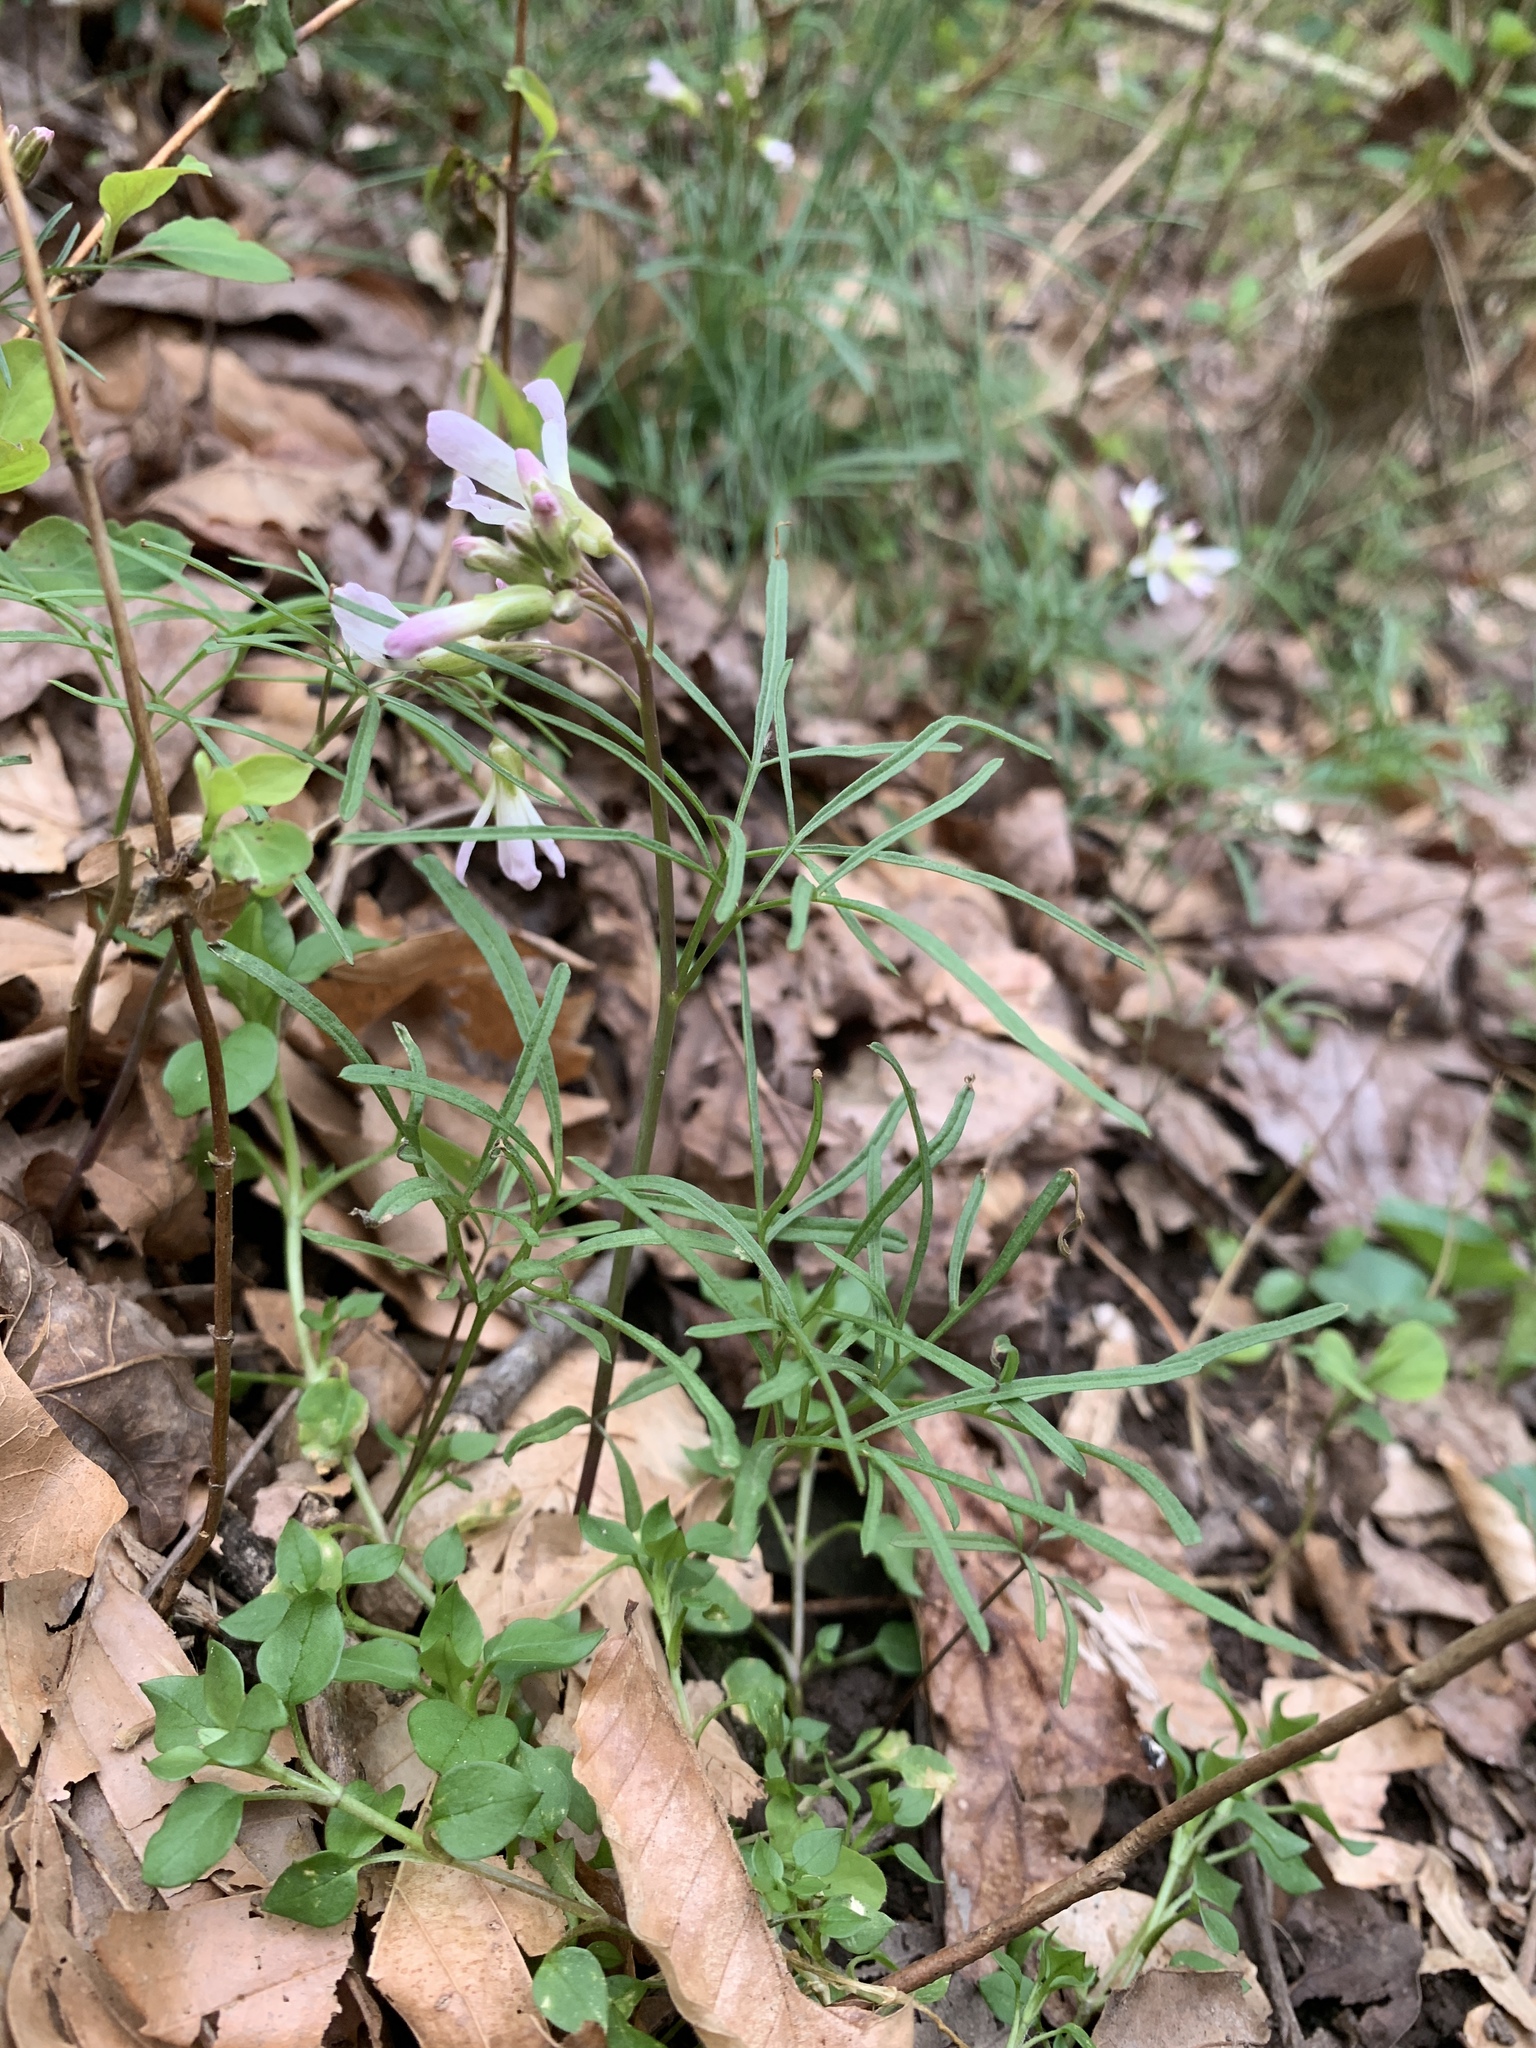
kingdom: Plantae
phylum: Tracheophyta
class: Magnoliopsida
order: Brassicales
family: Brassicaceae
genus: Cardamine
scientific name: Cardamine dissecta
